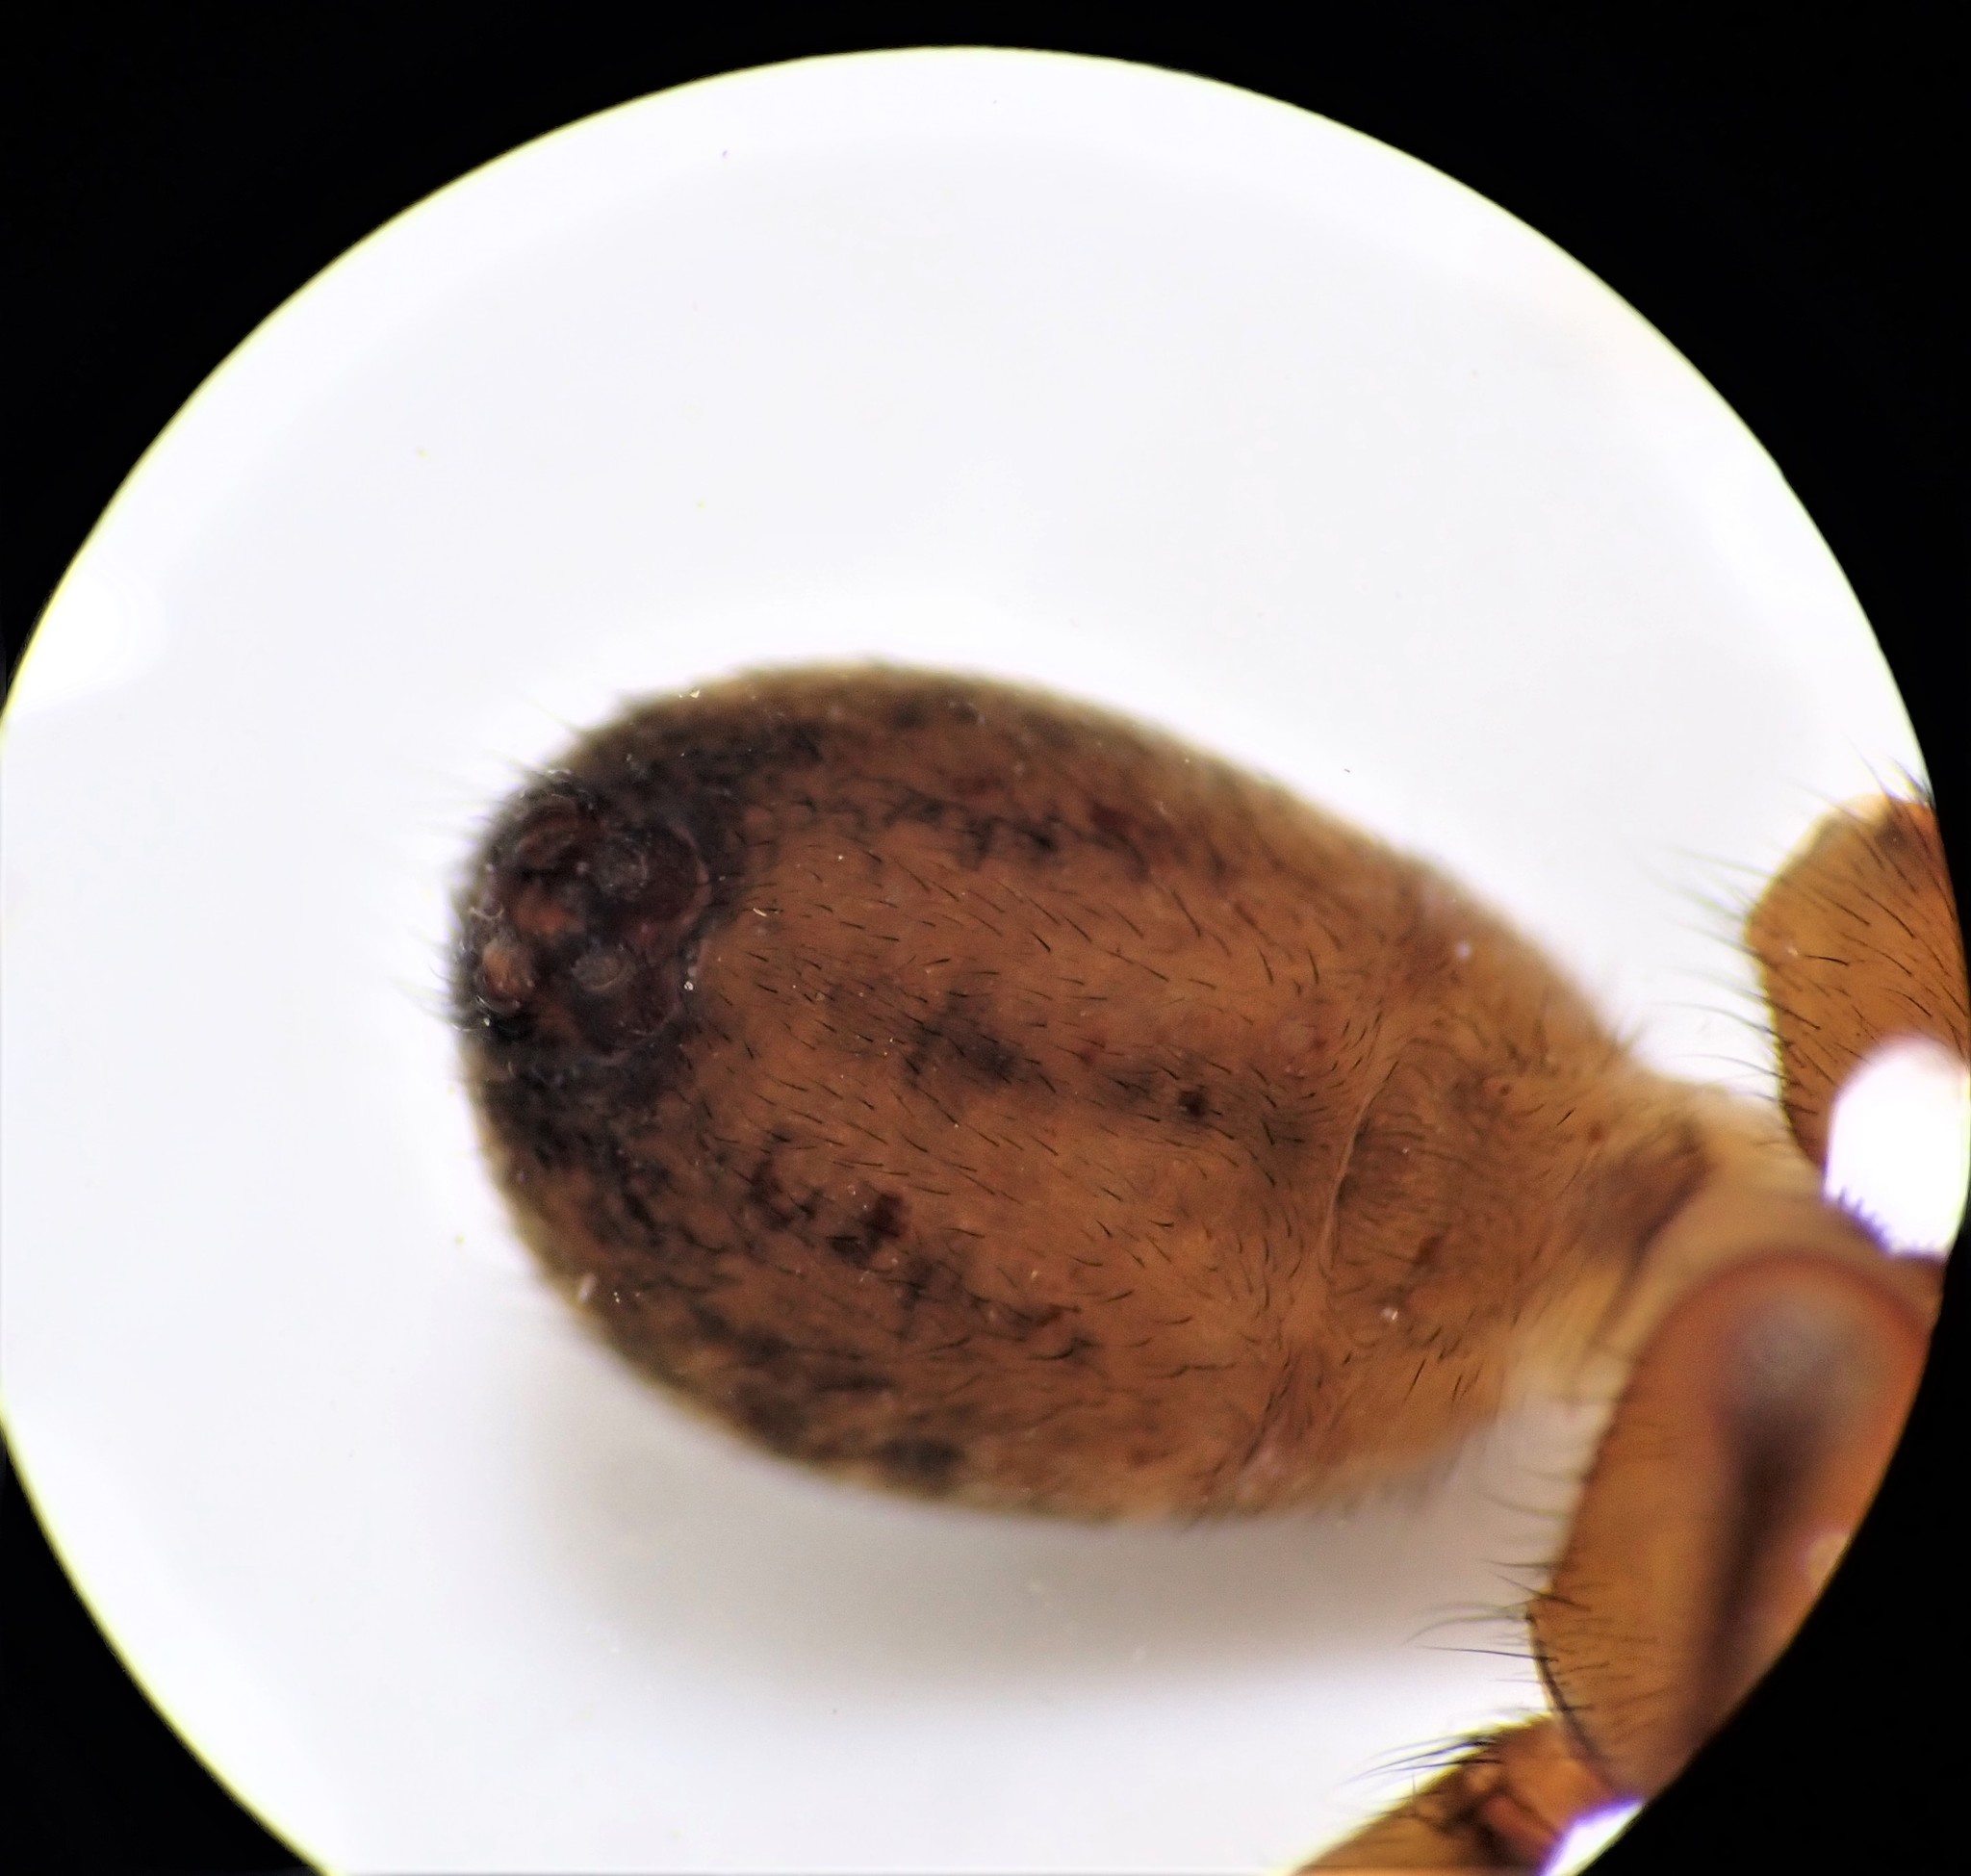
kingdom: Animalia
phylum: Arthropoda
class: Arachnida
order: Araneae
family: Lycosidae
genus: Allotrochosina
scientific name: Allotrochosina schauinslandi
